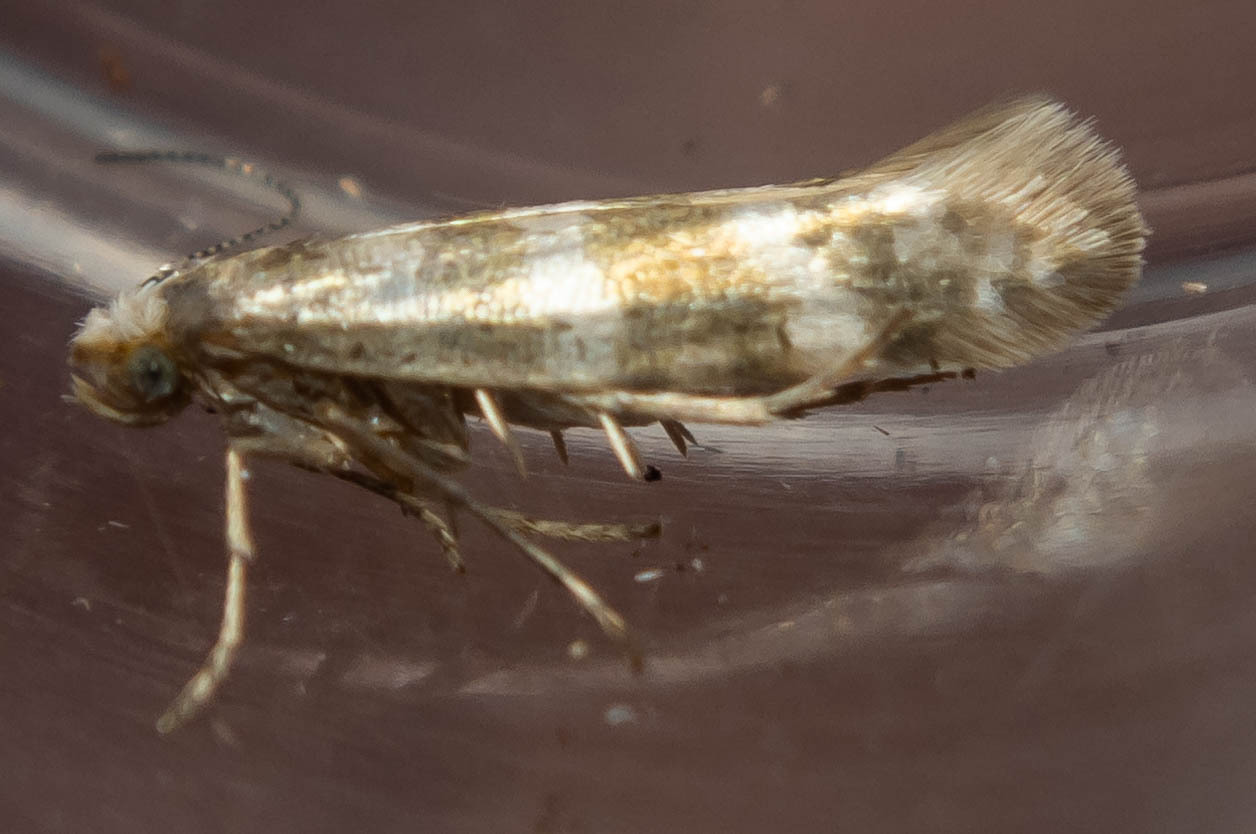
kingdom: Animalia
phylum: Arthropoda
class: Insecta
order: Lepidoptera
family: Argyresthiidae
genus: Argyresthia
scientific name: Argyresthia trifasciata
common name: Triple-barred argent
